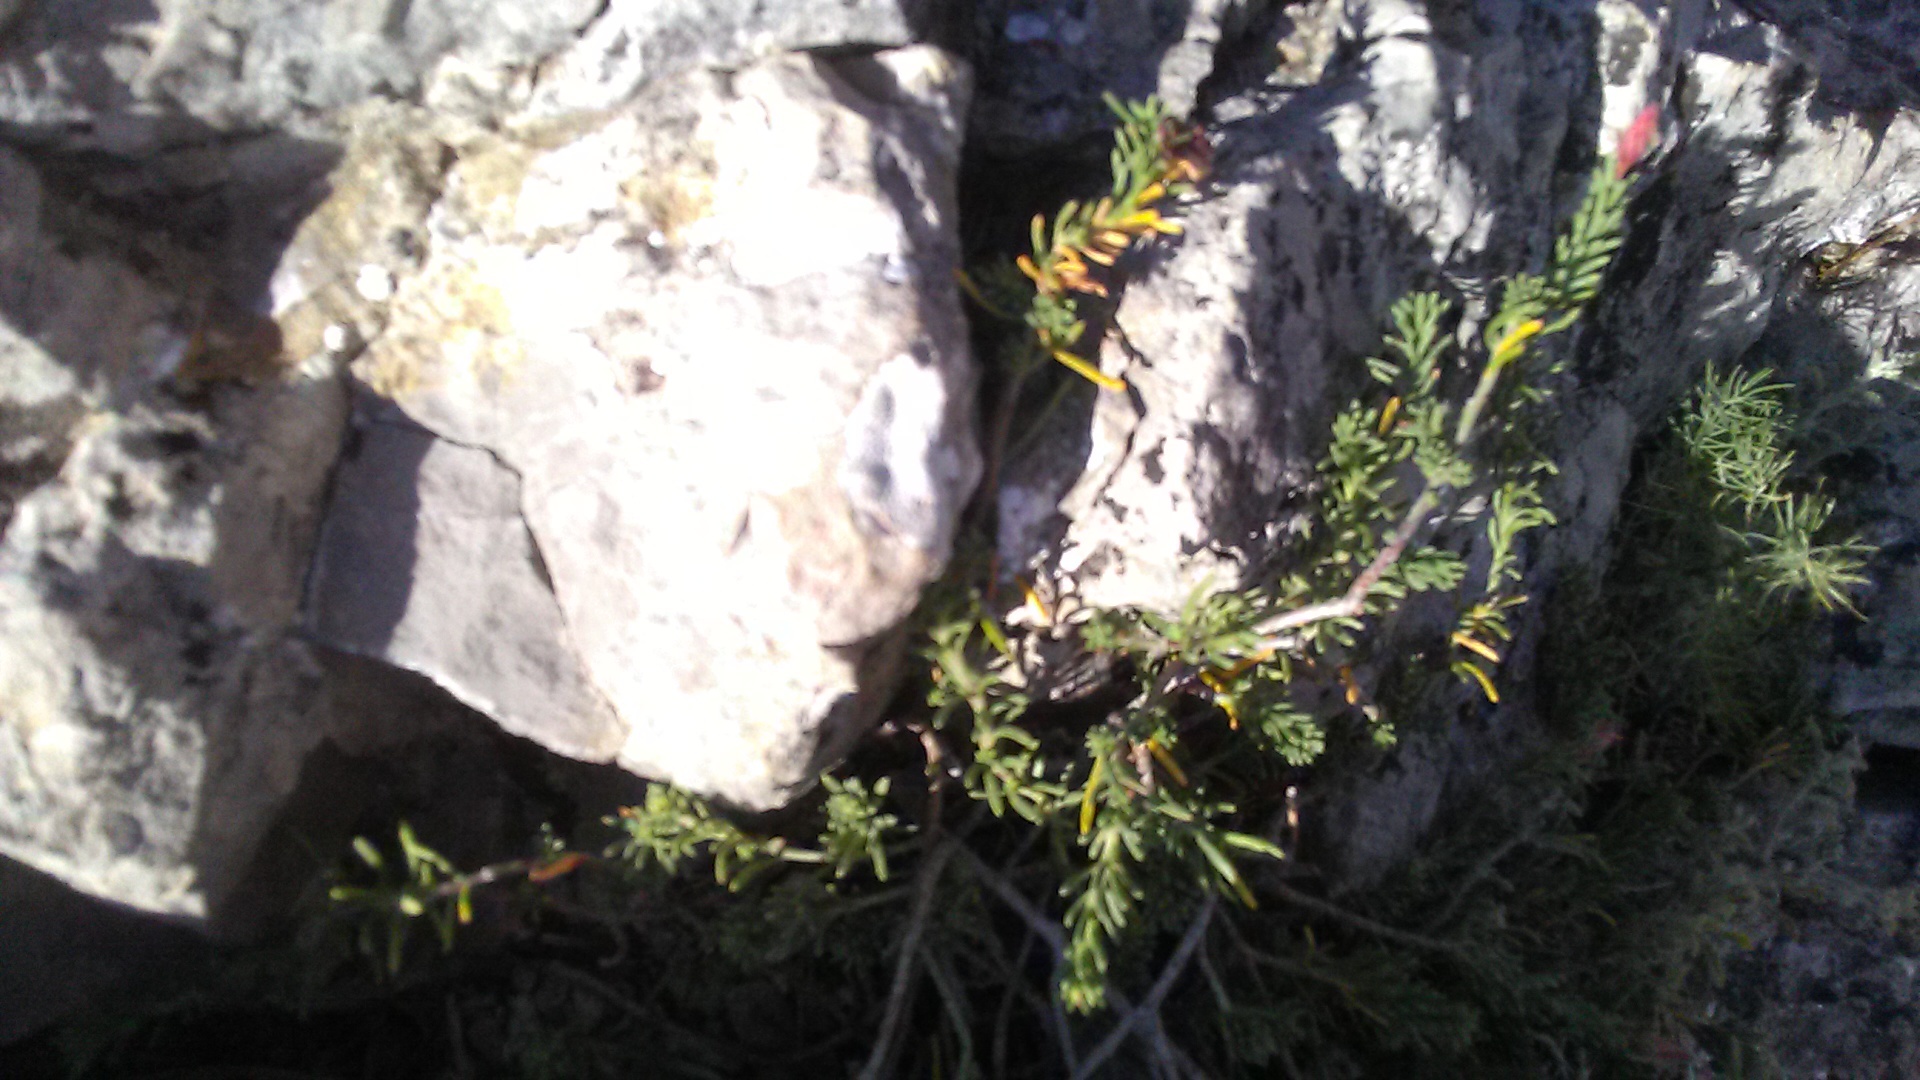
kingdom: Plantae
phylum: Tracheophyta
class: Magnoliopsida
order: Malvales
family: Cistaceae
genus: Fumana
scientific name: Fumana procumbens
